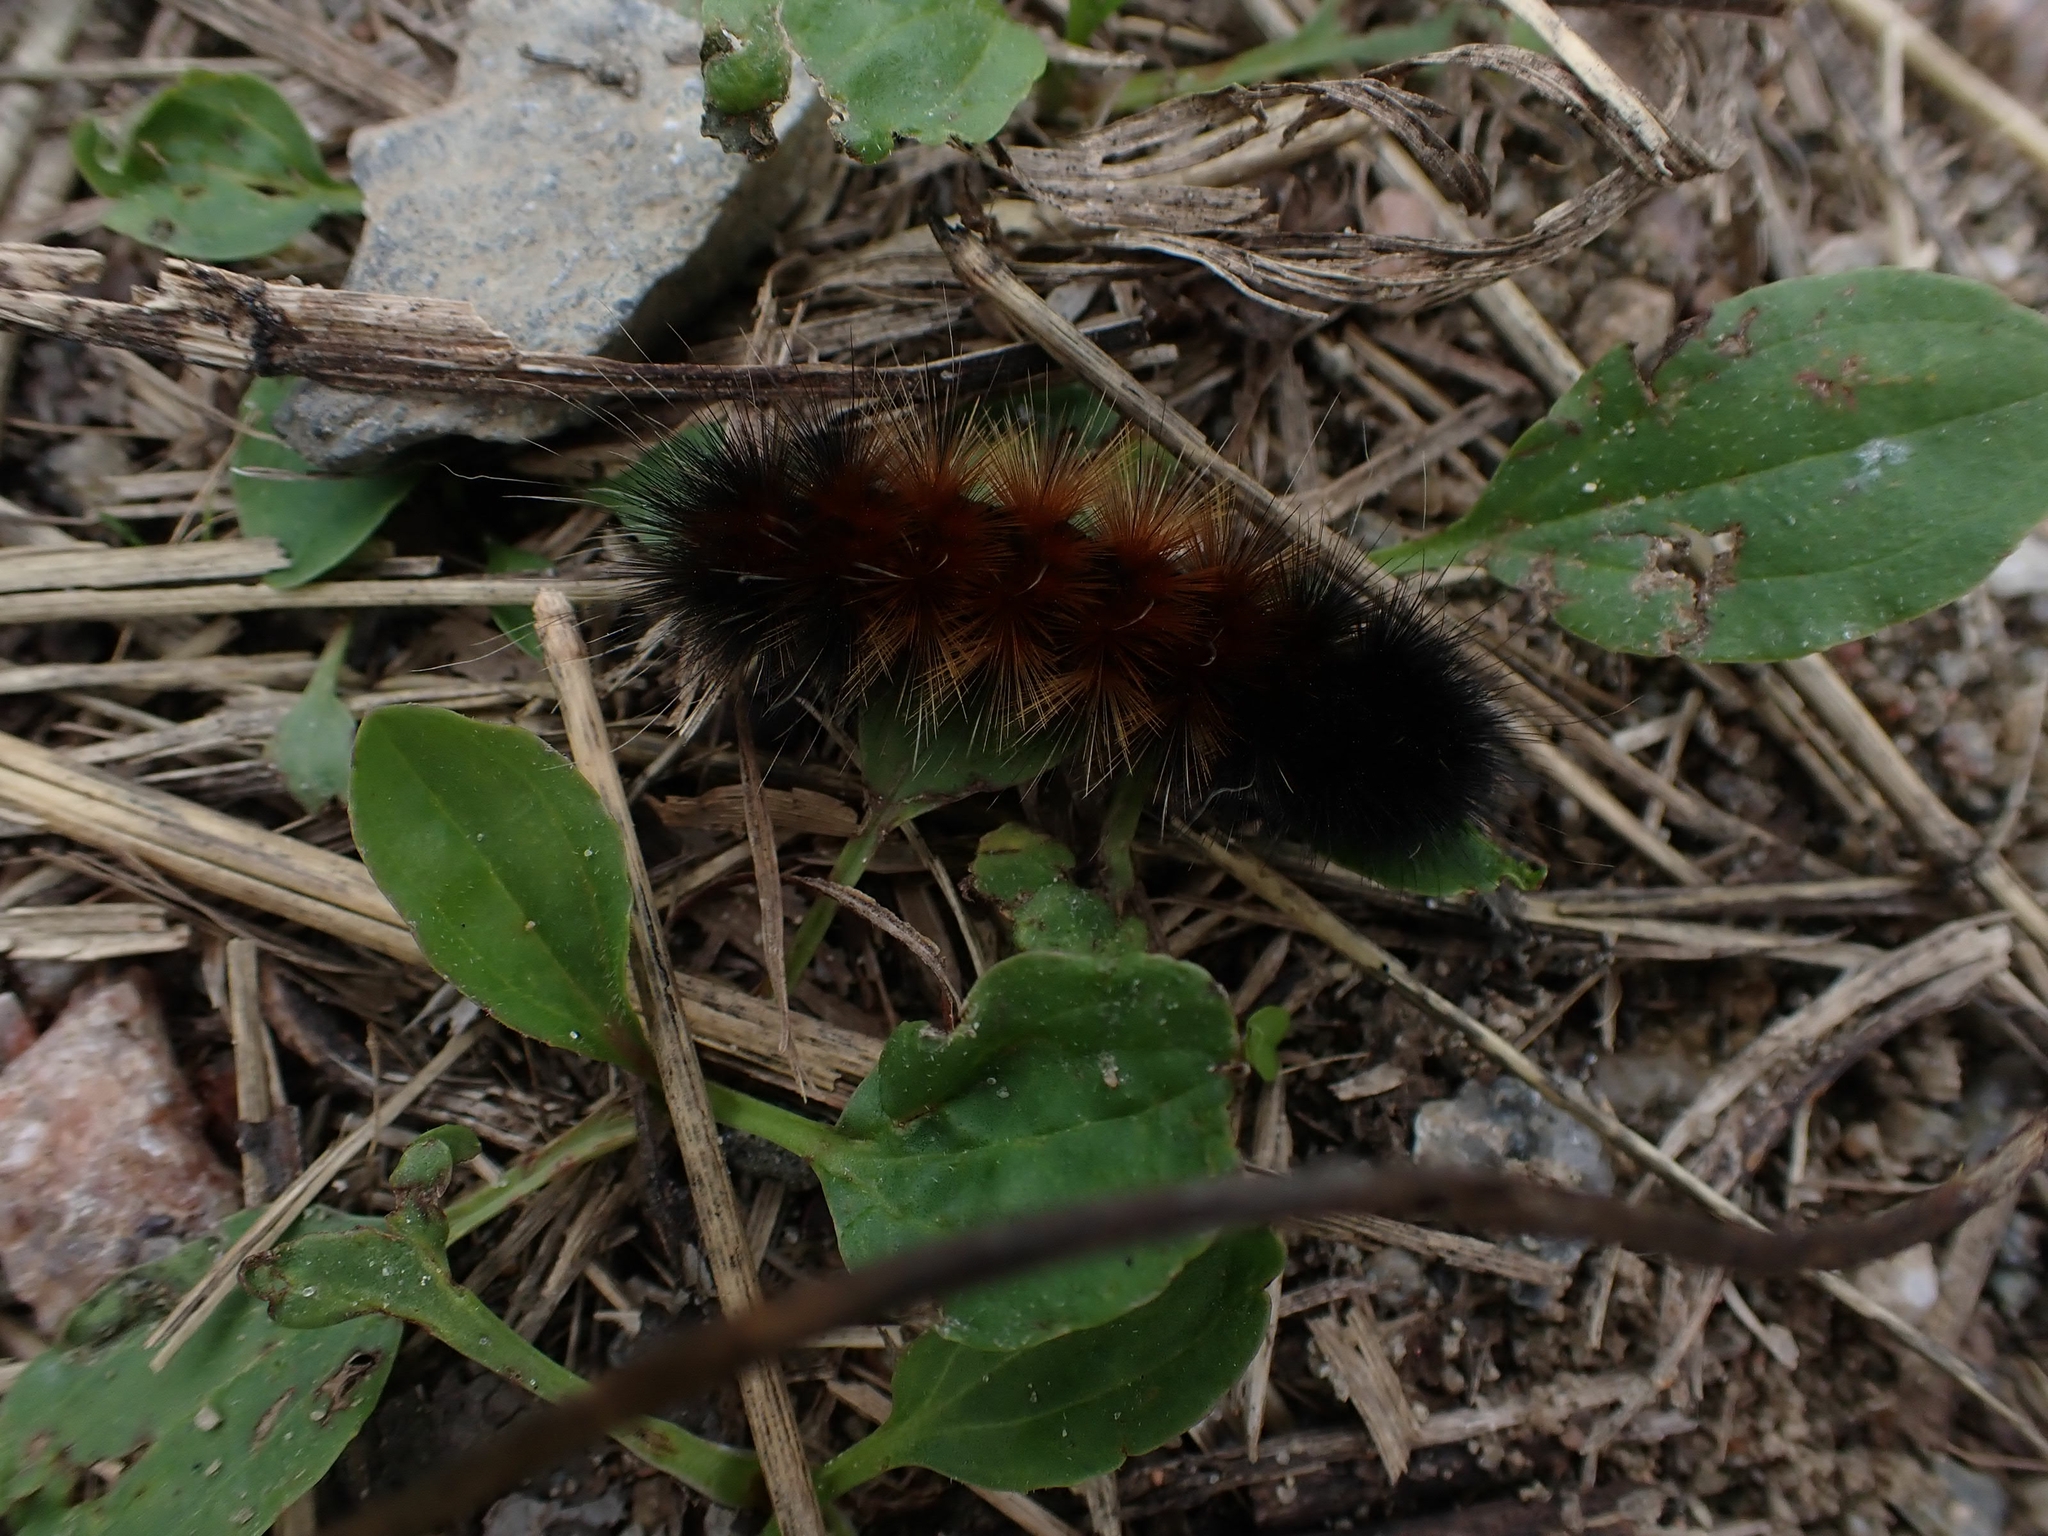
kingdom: Animalia
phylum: Arthropoda
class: Insecta
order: Lepidoptera
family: Erebidae
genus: Pyrrharctia
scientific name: Pyrrharctia isabella
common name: Isabella tiger moth
